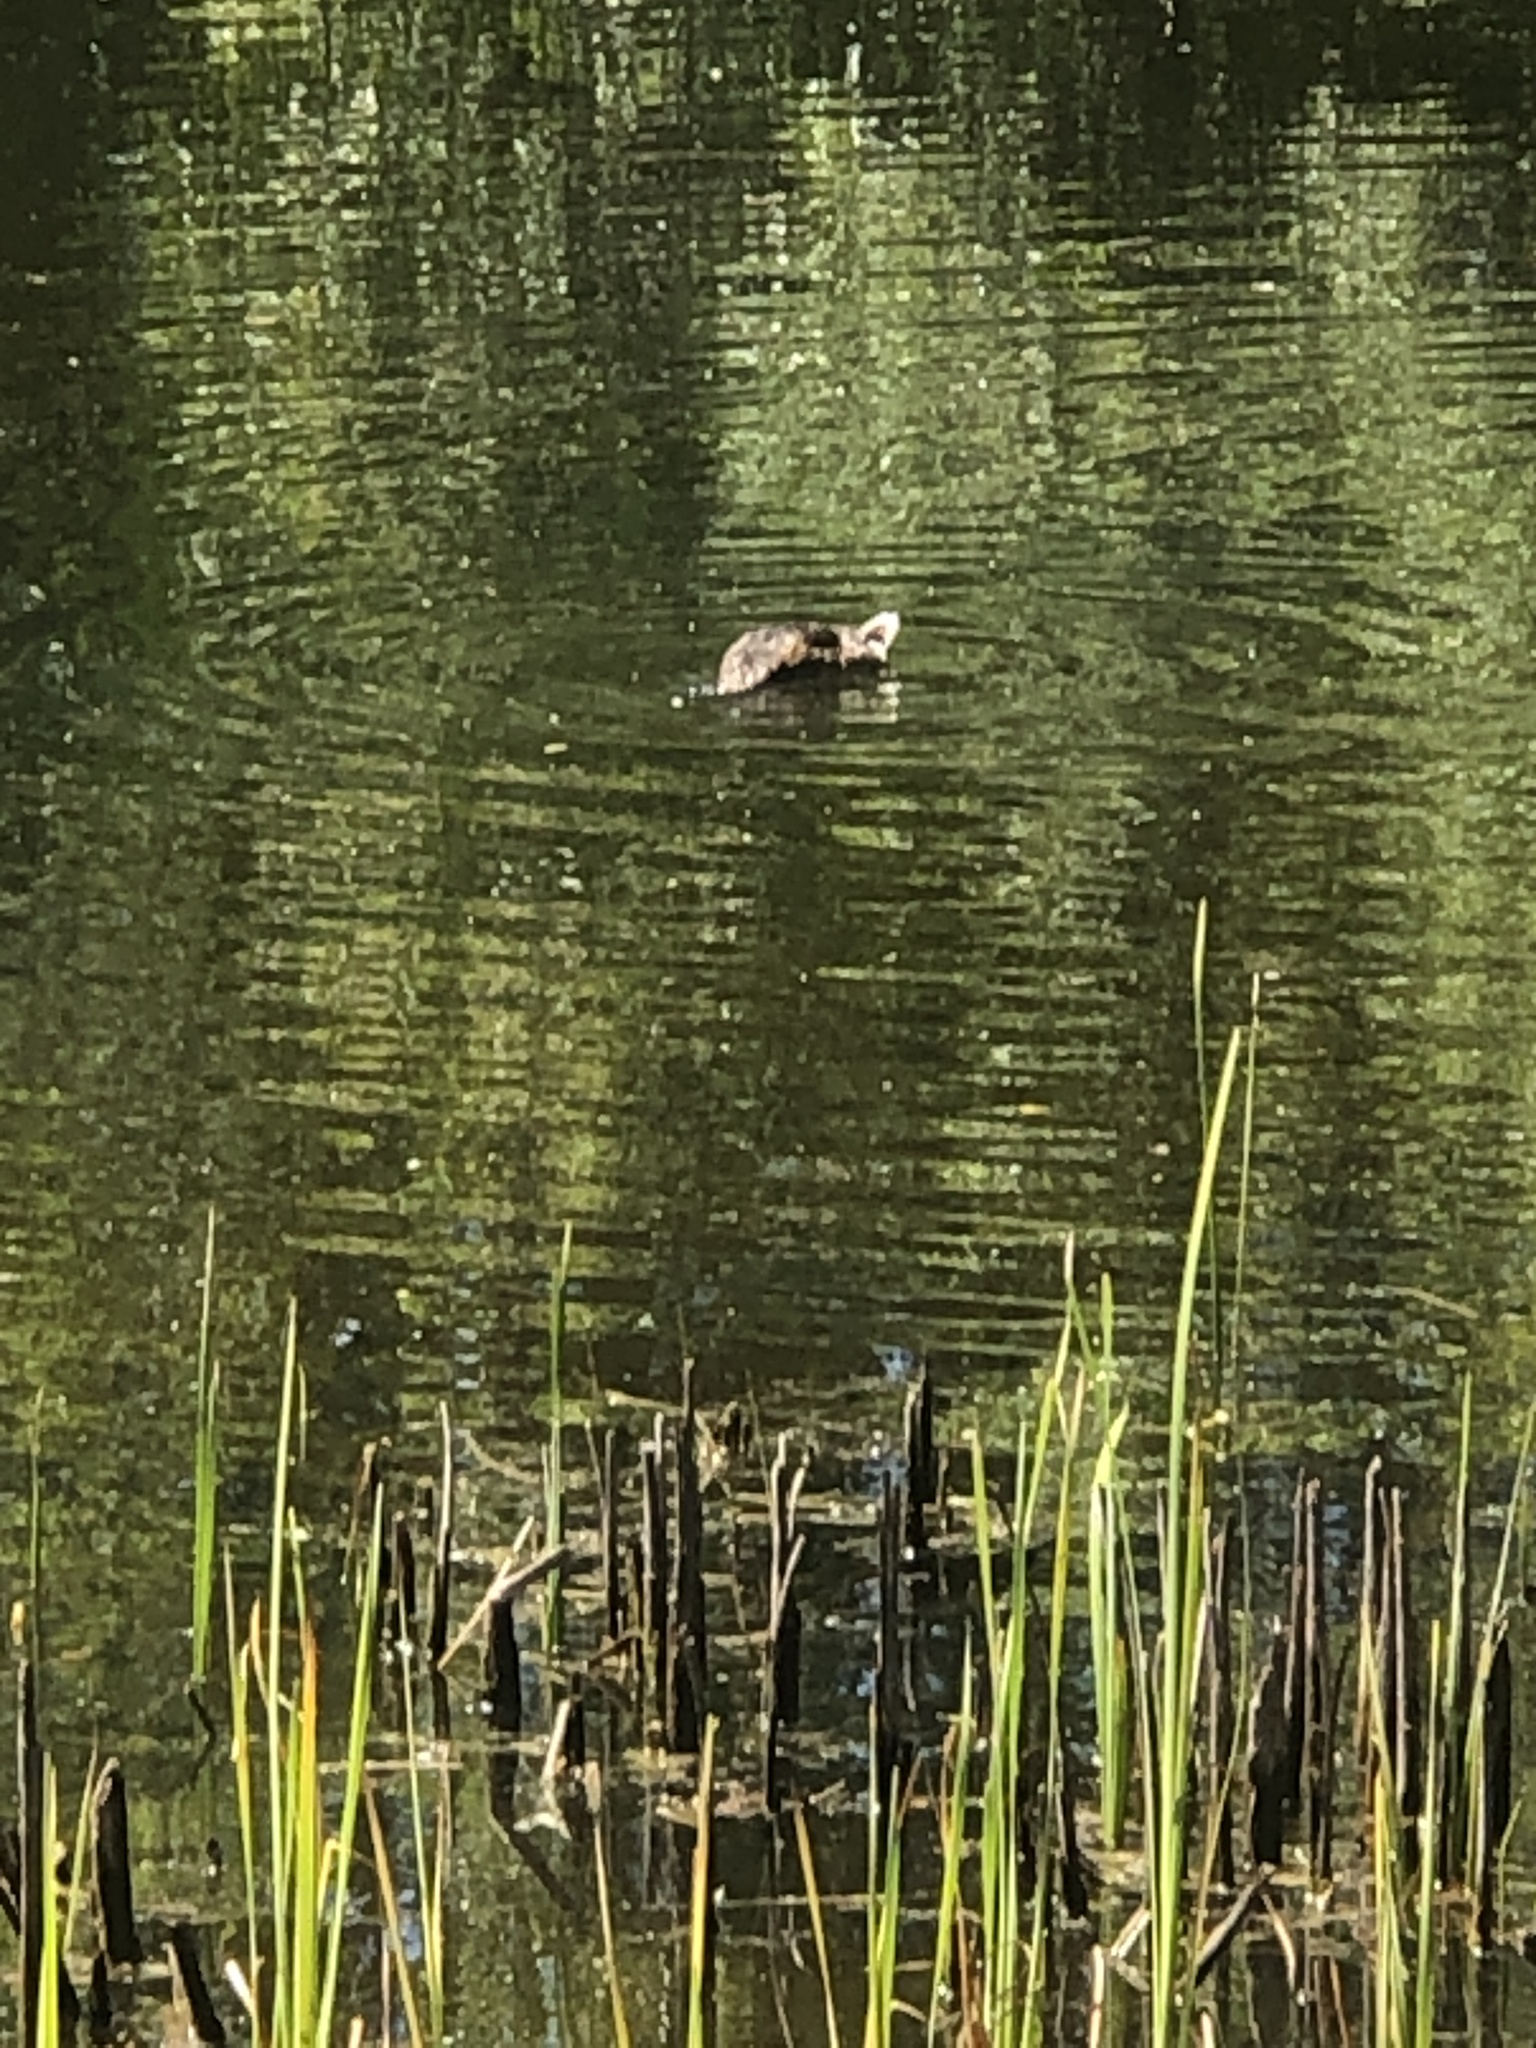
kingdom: Animalia
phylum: Chordata
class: Aves
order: Anseriformes
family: Anatidae
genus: Anas
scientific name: Anas platyrhynchos
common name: Mallard
